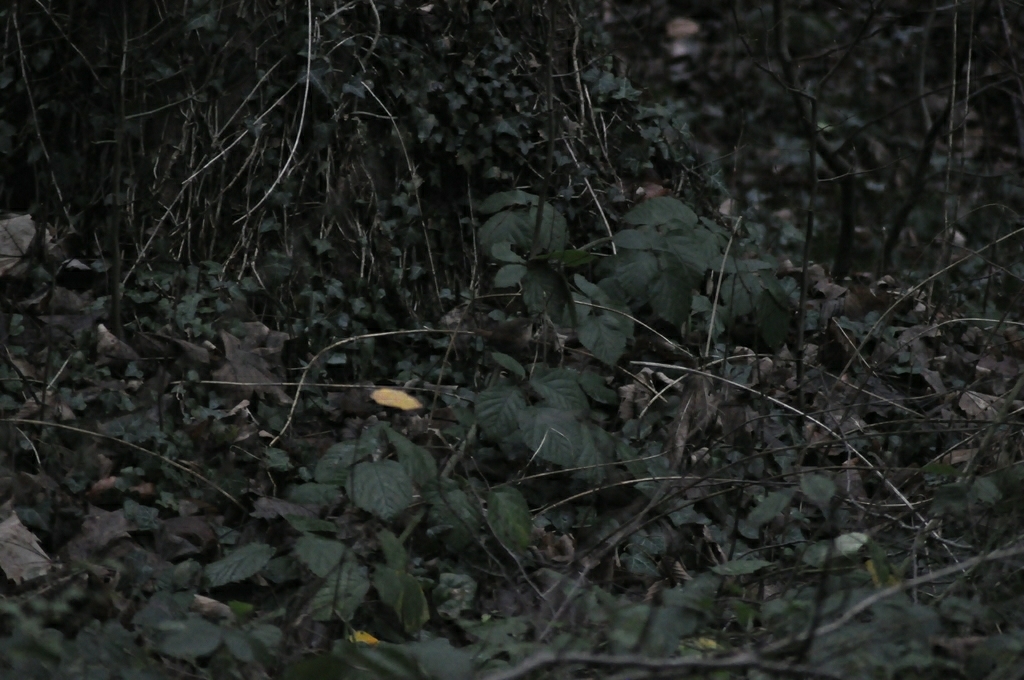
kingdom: Animalia
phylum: Chordata
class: Aves
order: Passeriformes
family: Troglodytidae
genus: Troglodytes
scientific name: Troglodytes troglodytes
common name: Eurasian wren
